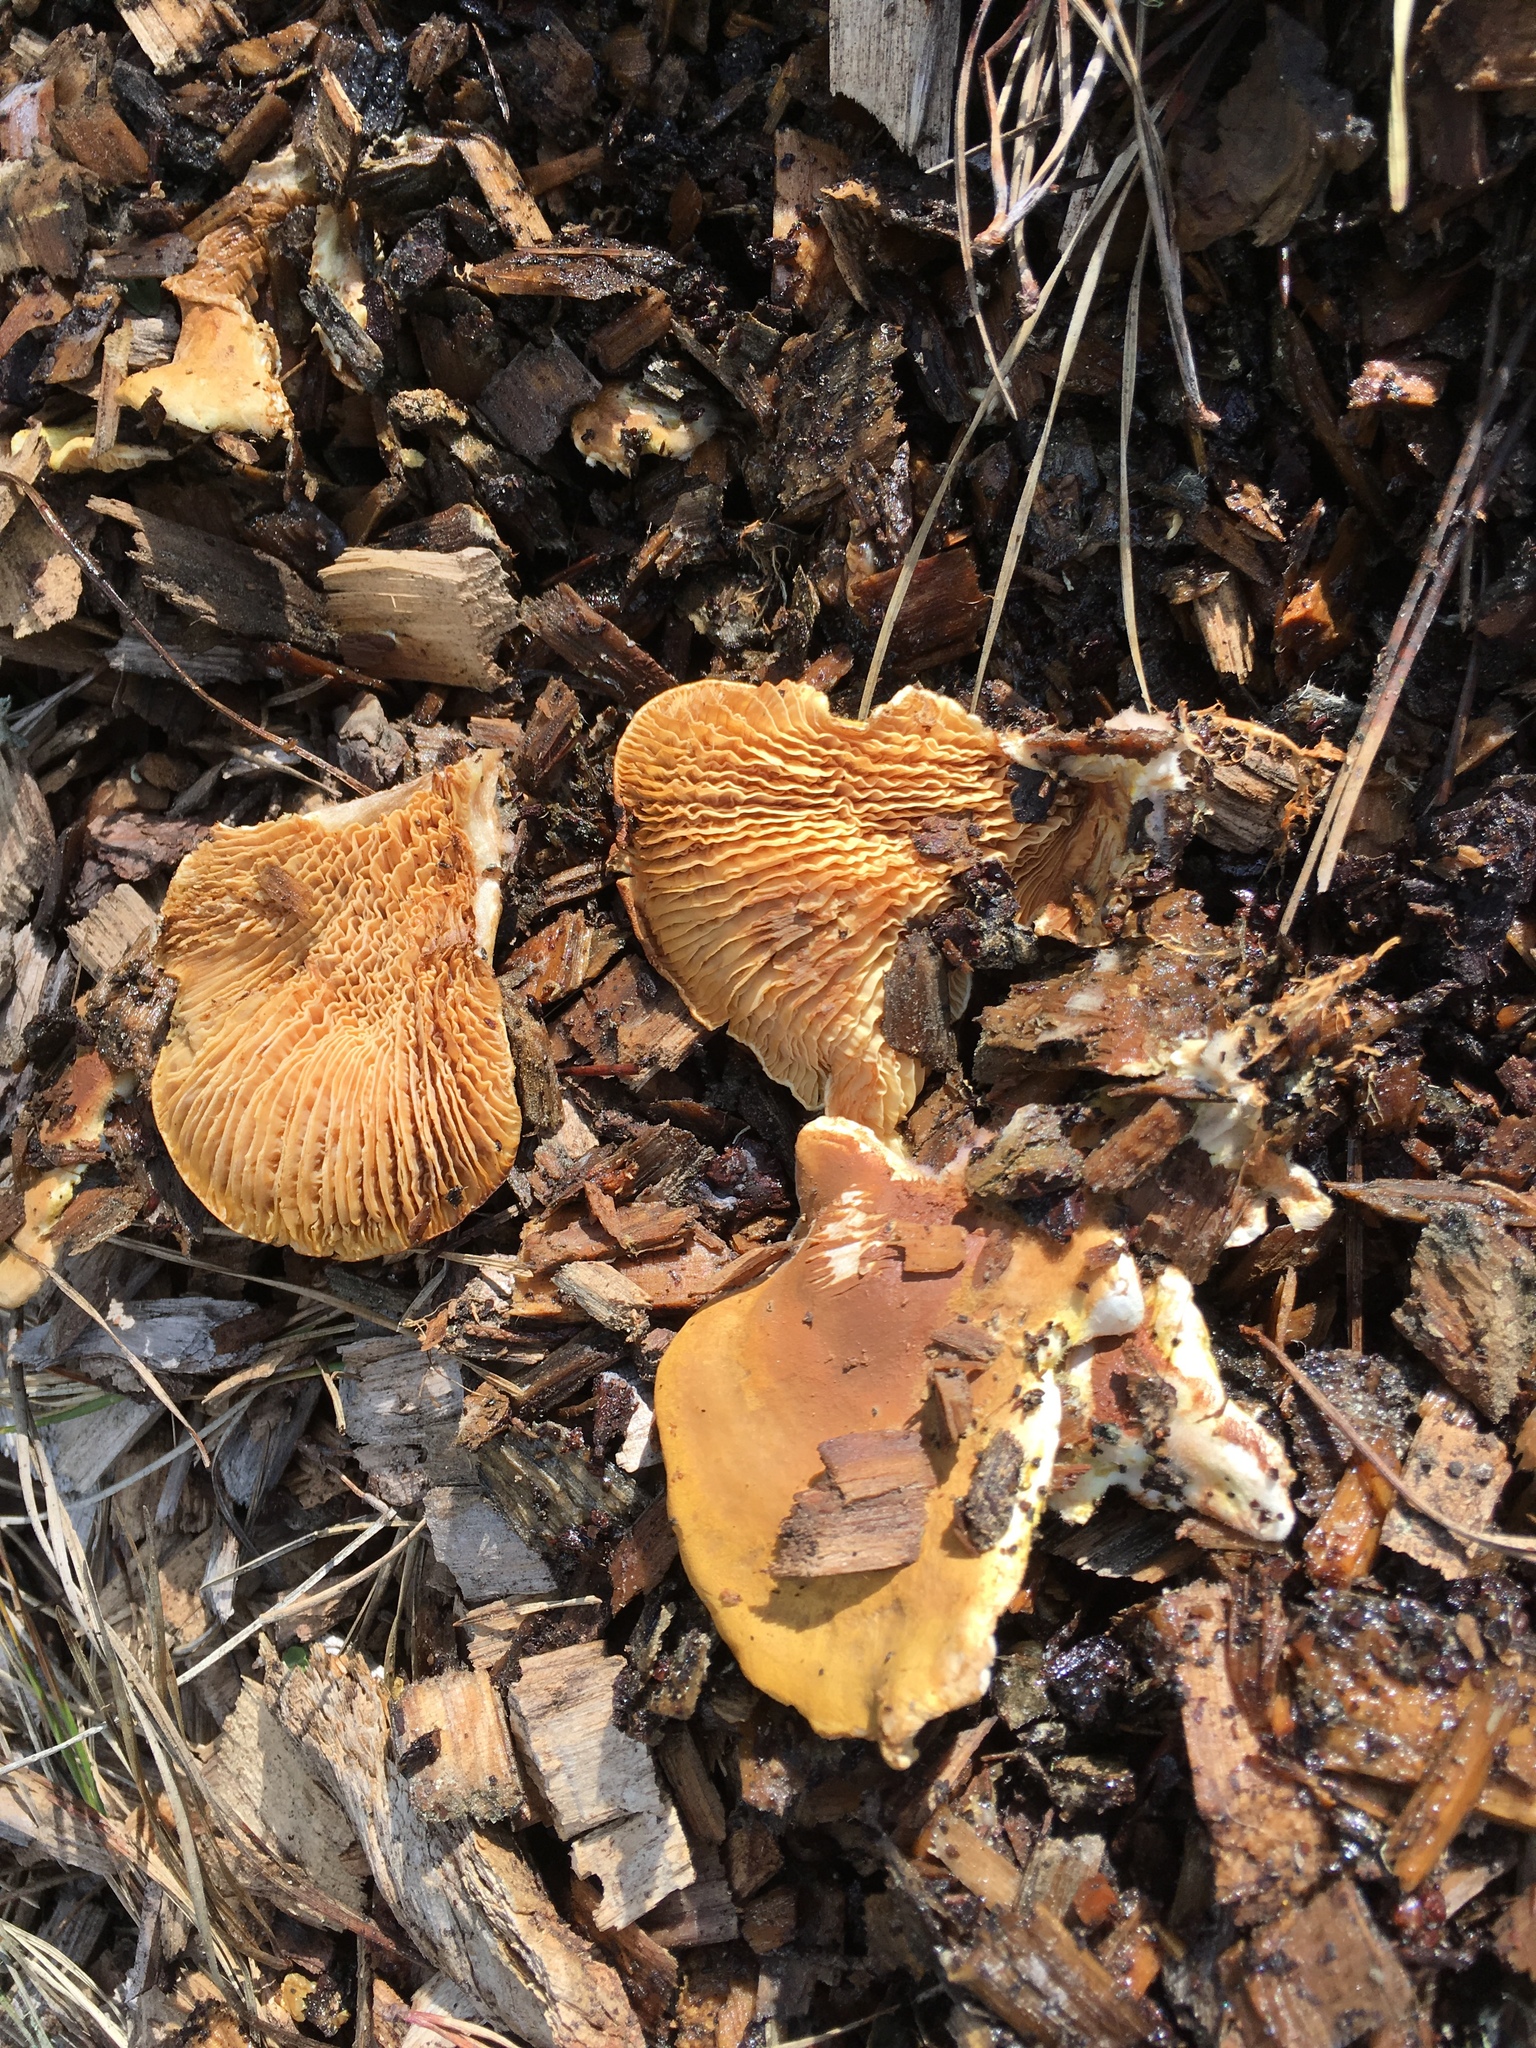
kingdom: Fungi
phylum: Basidiomycota
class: Agaricomycetes
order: Boletales
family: Tapinellaceae
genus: Tapinella
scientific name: Tapinella panuoides
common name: Oyster rollrim
